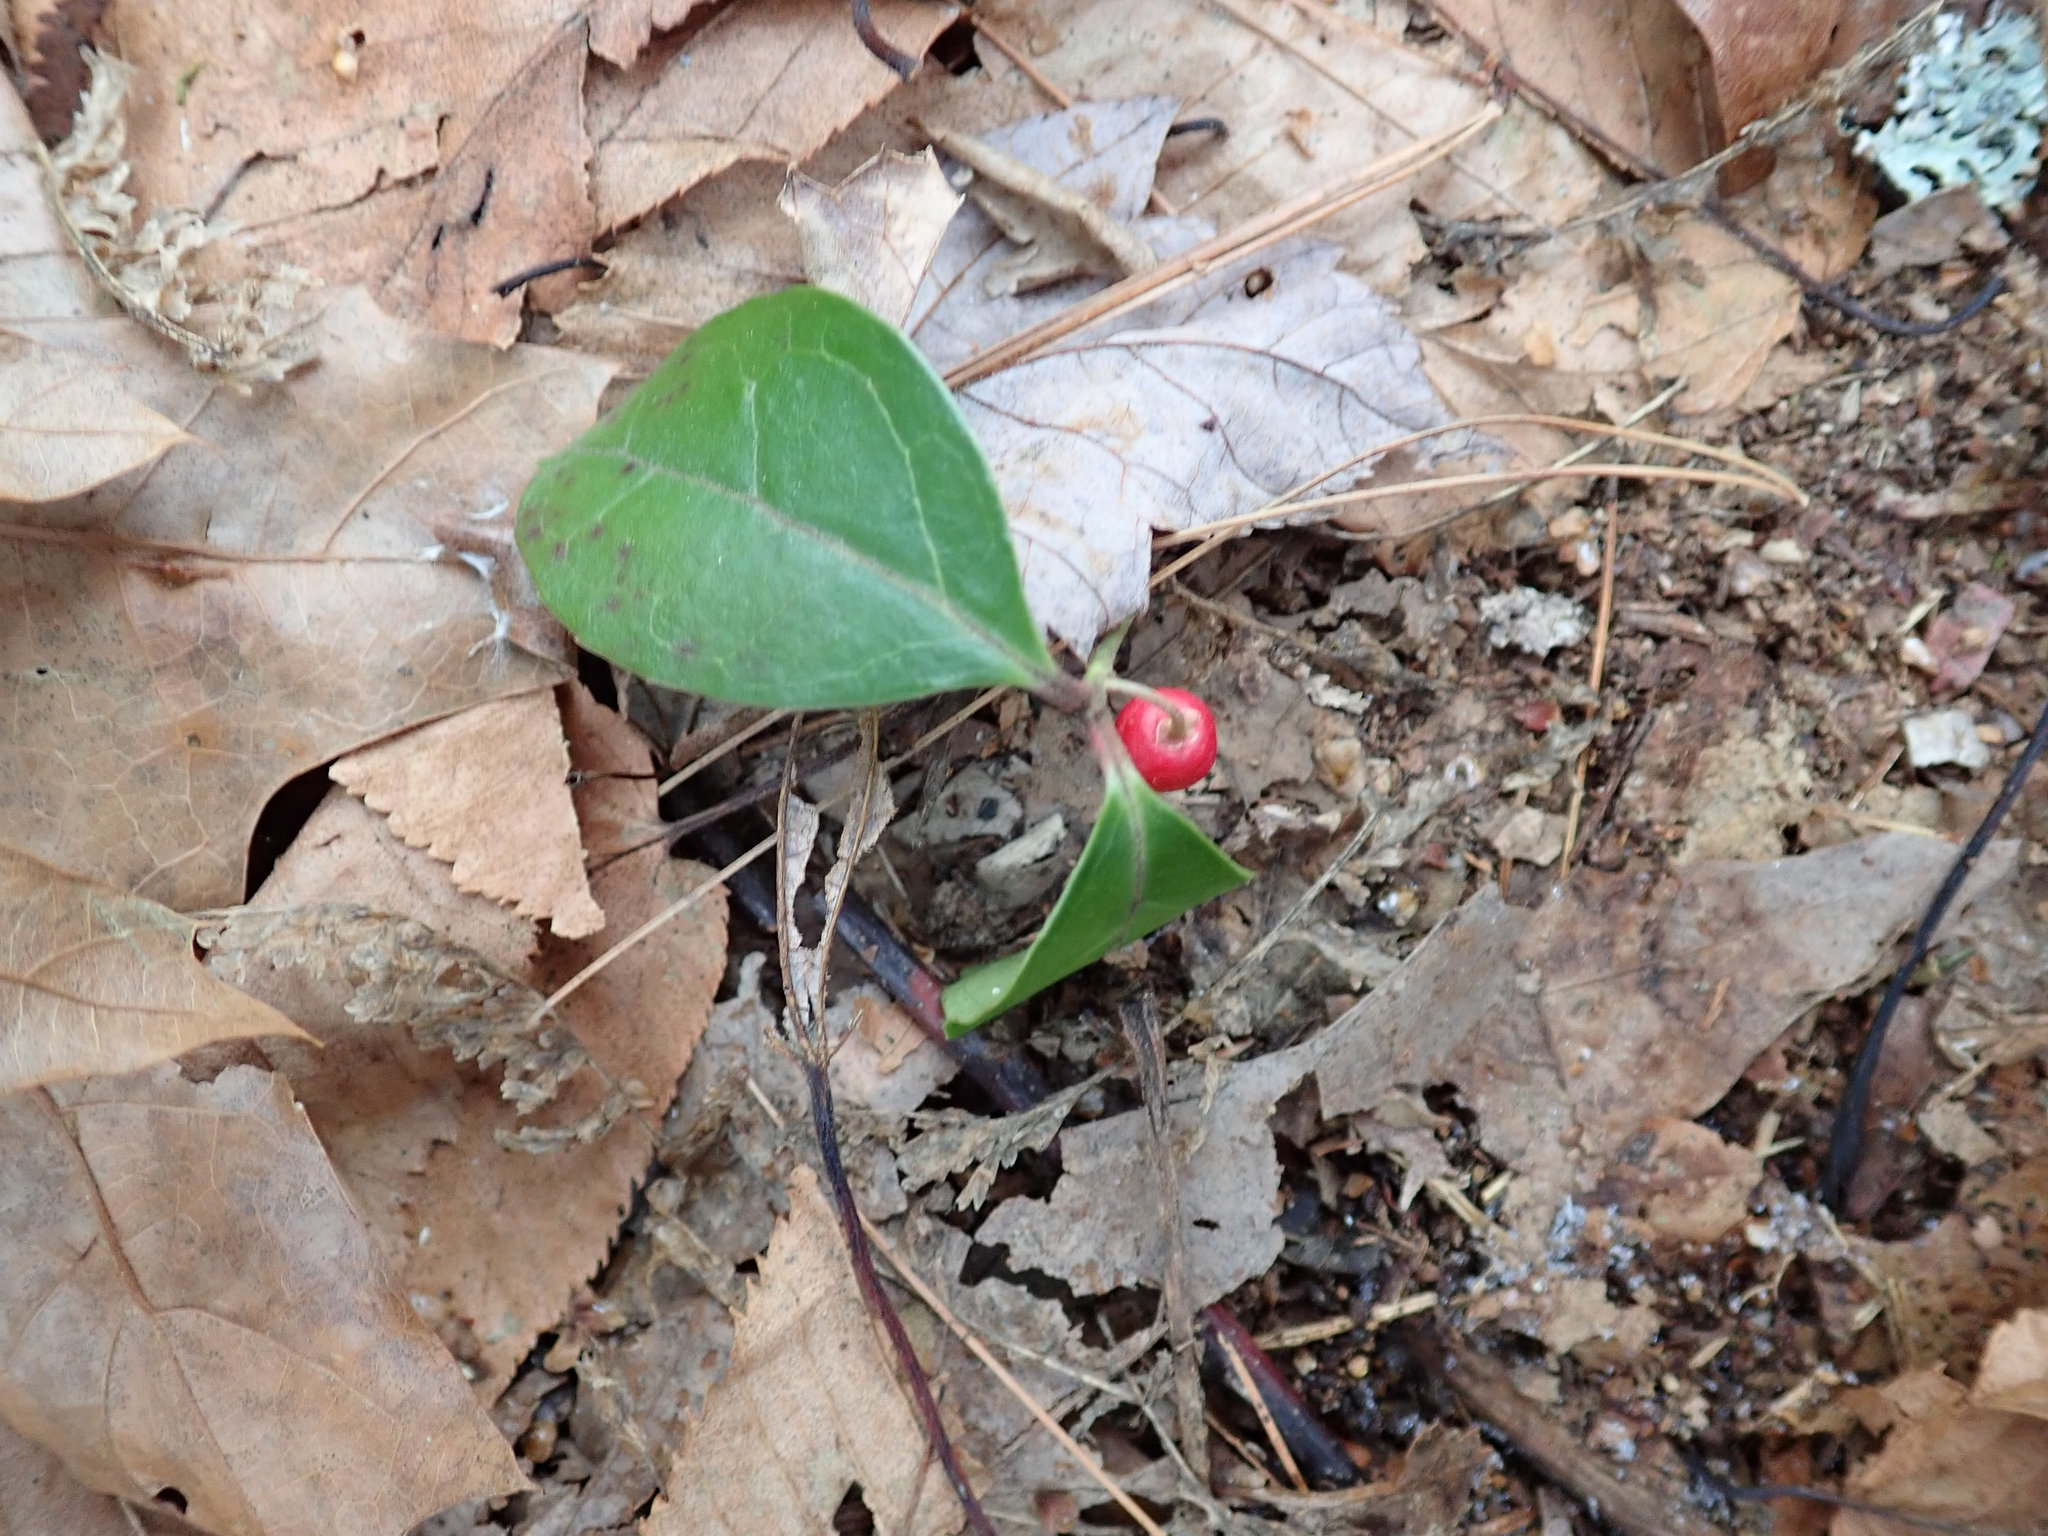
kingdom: Plantae
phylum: Tracheophyta
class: Magnoliopsida
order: Ericales
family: Ericaceae
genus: Gaultheria
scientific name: Gaultheria procumbens
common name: Checkerberry
